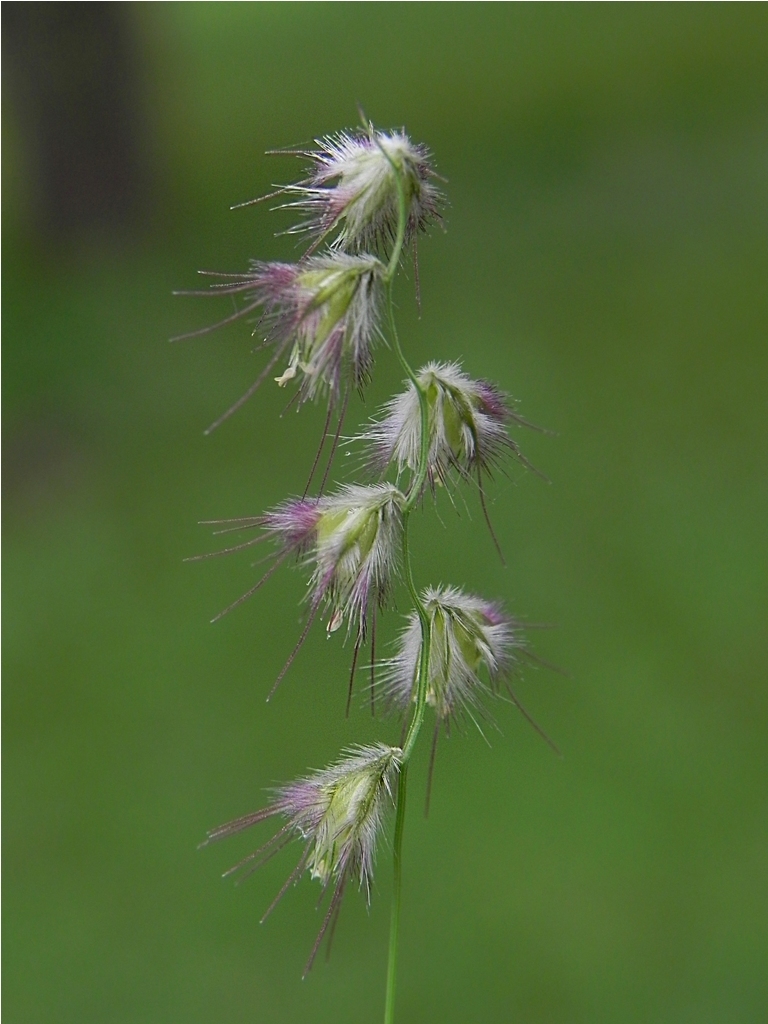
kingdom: Plantae
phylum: Tracheophyta
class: Liliopsida
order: Poales
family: Poaceae
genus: Melanocenchris
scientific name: Melanocenchris jacquemontii
